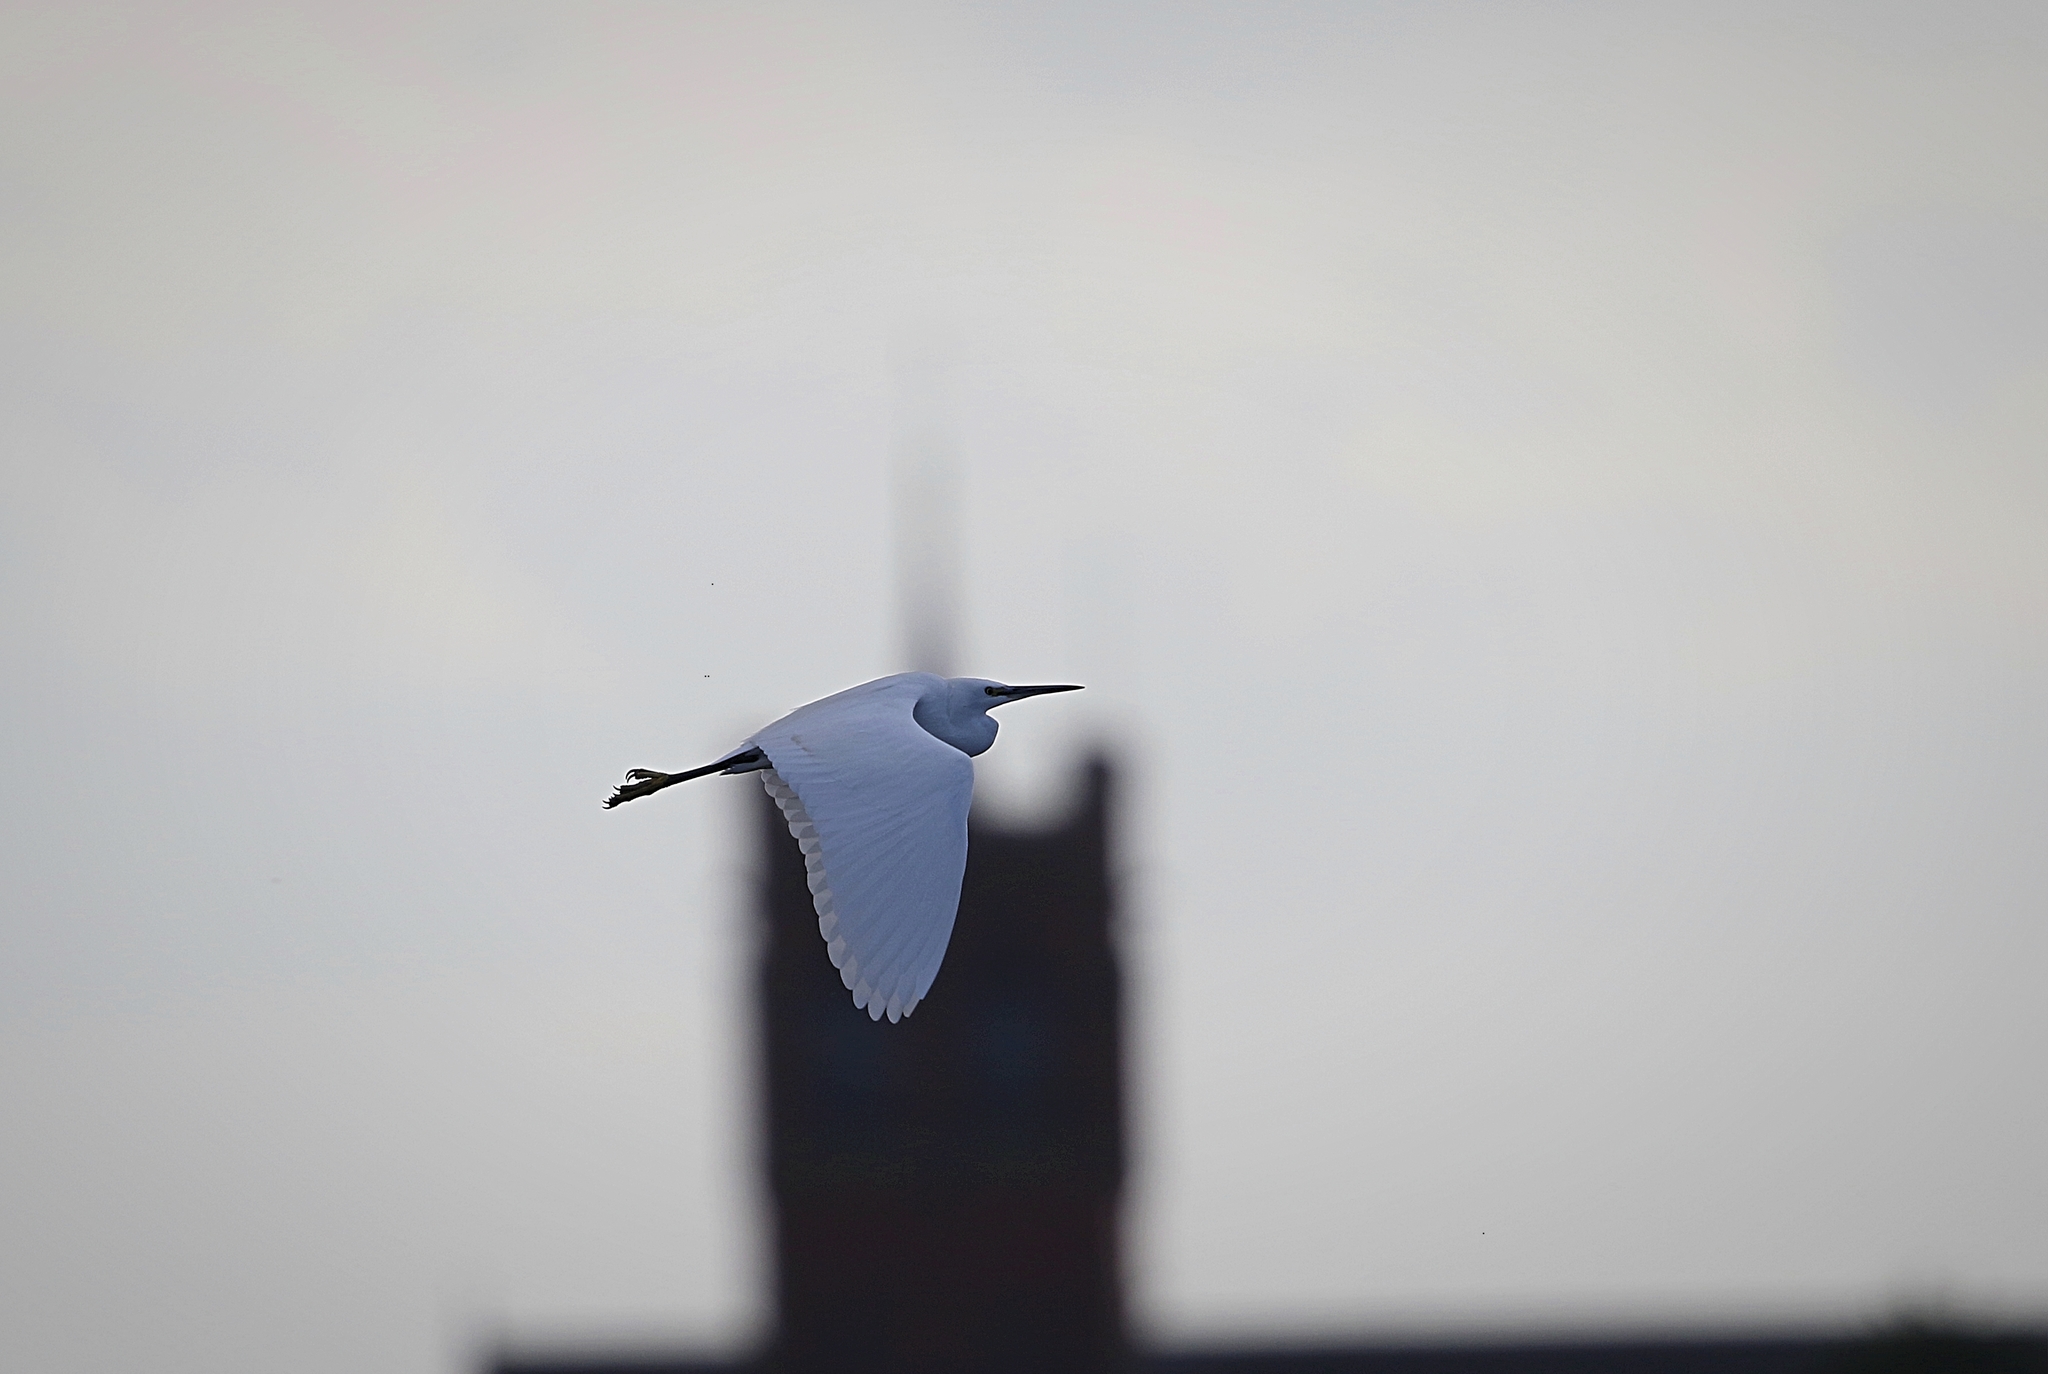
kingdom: Animalia
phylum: Chordata
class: Aves
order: Pelecaniformes
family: Ardeidae
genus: Egretta
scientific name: Egretta garzetta
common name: Little egret
